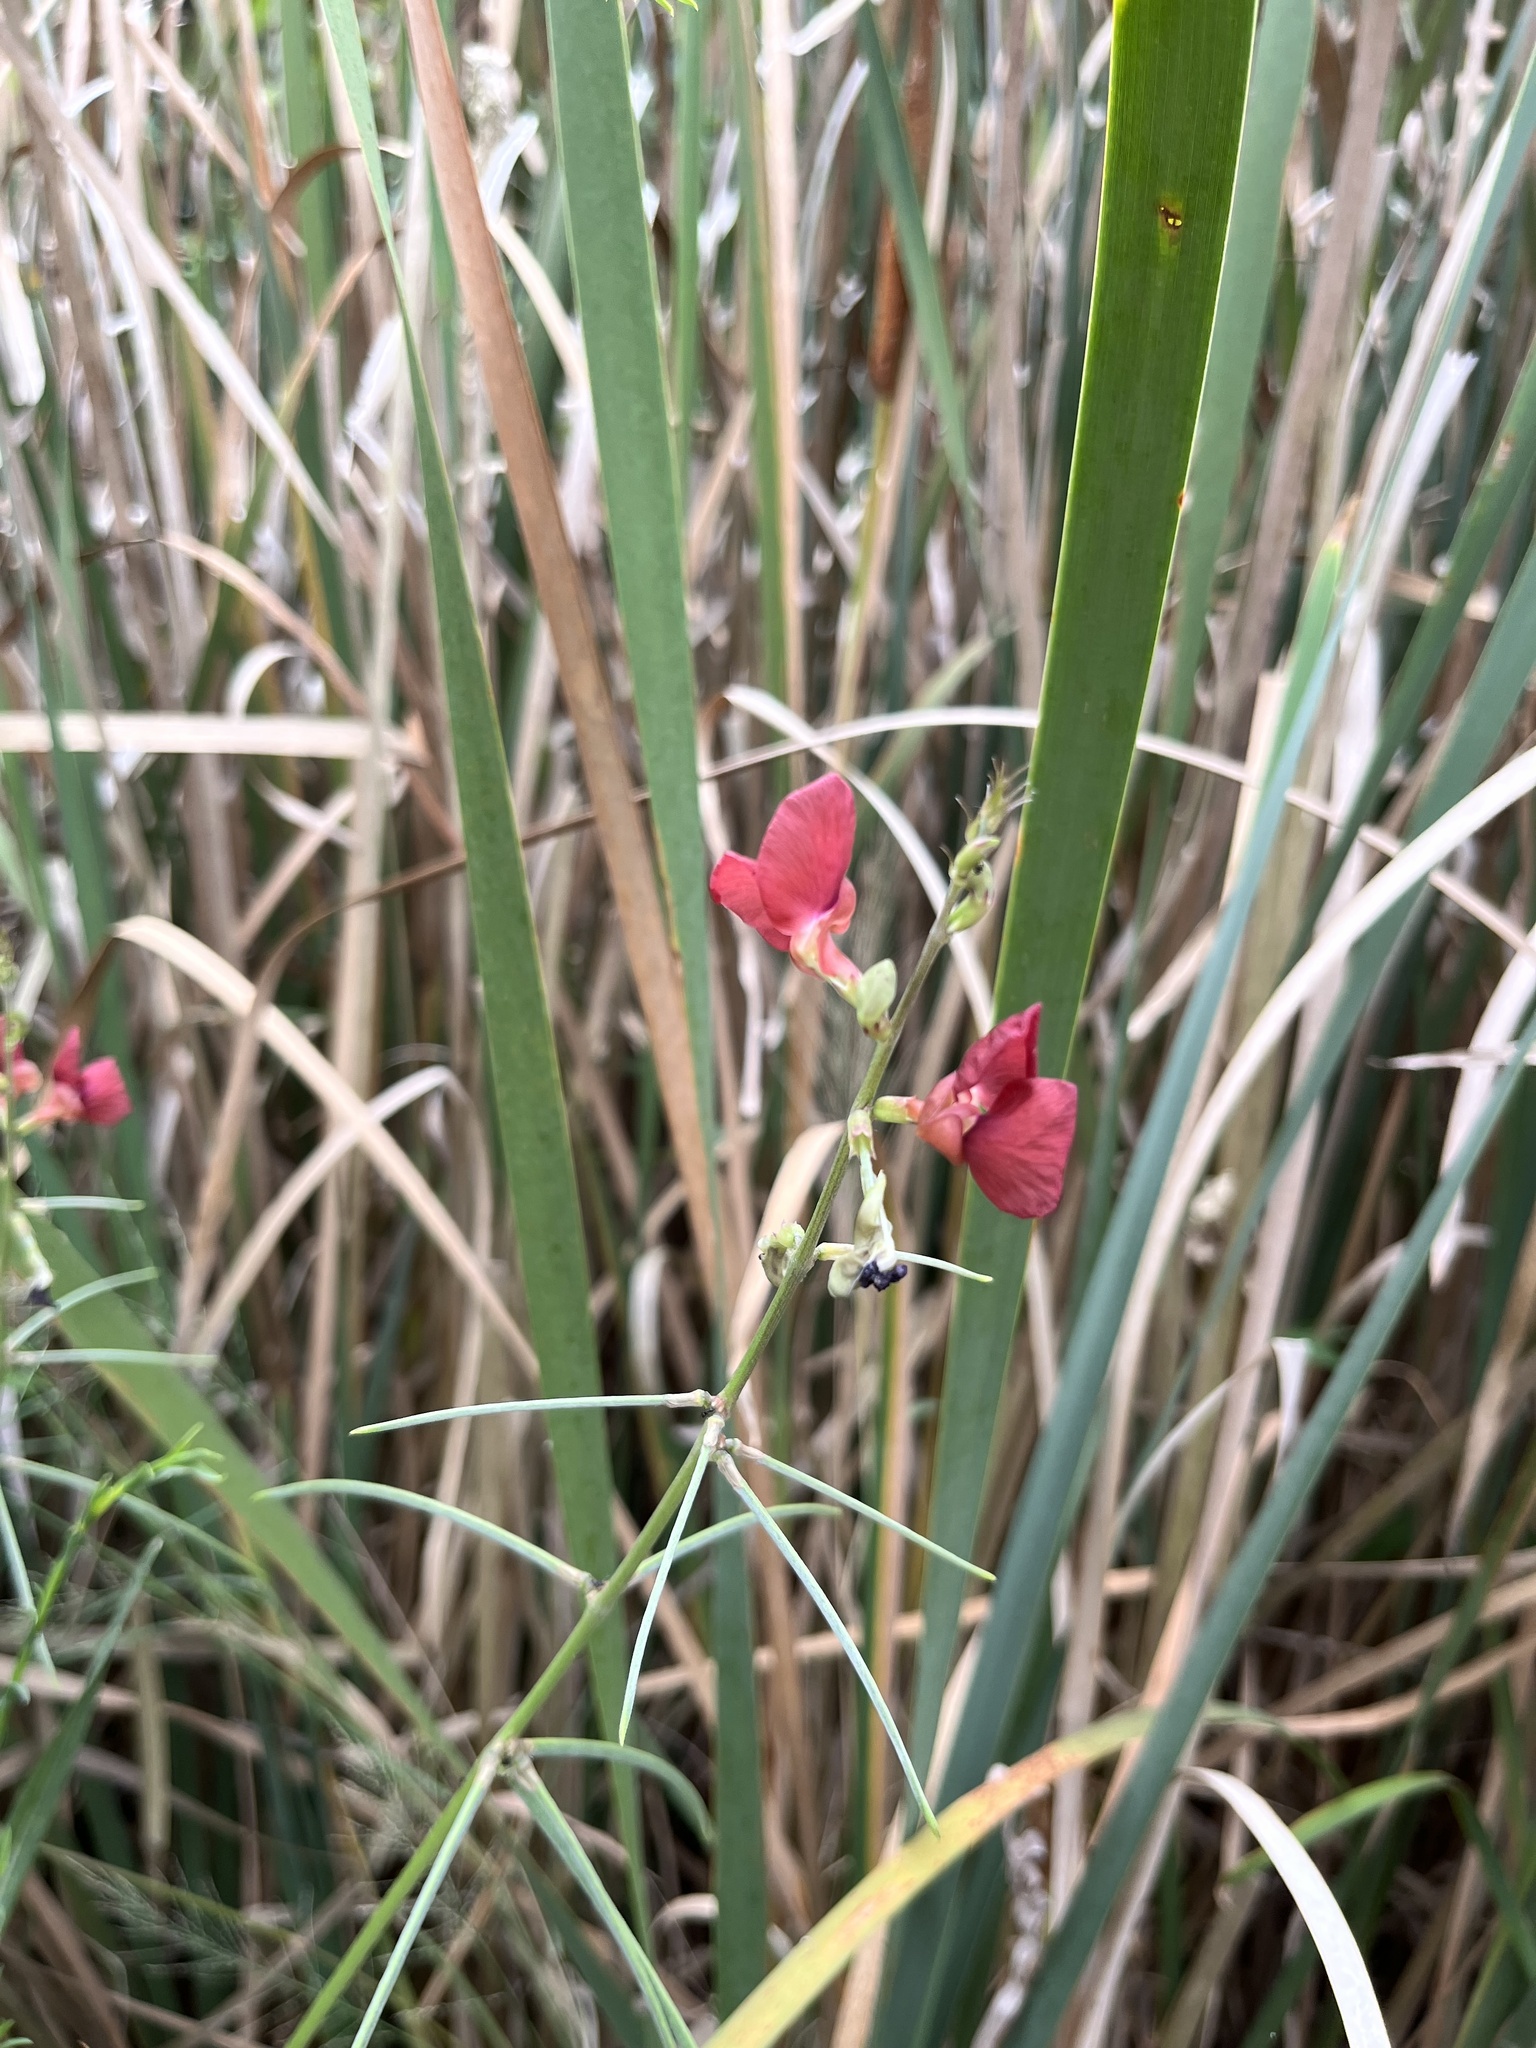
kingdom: Plantae
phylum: Tracheophyta
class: Magnoliopsida
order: Fabales
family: Fabaceae
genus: Macroptilium
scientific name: Macroptilium lathyroides
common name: Wild bushbean
